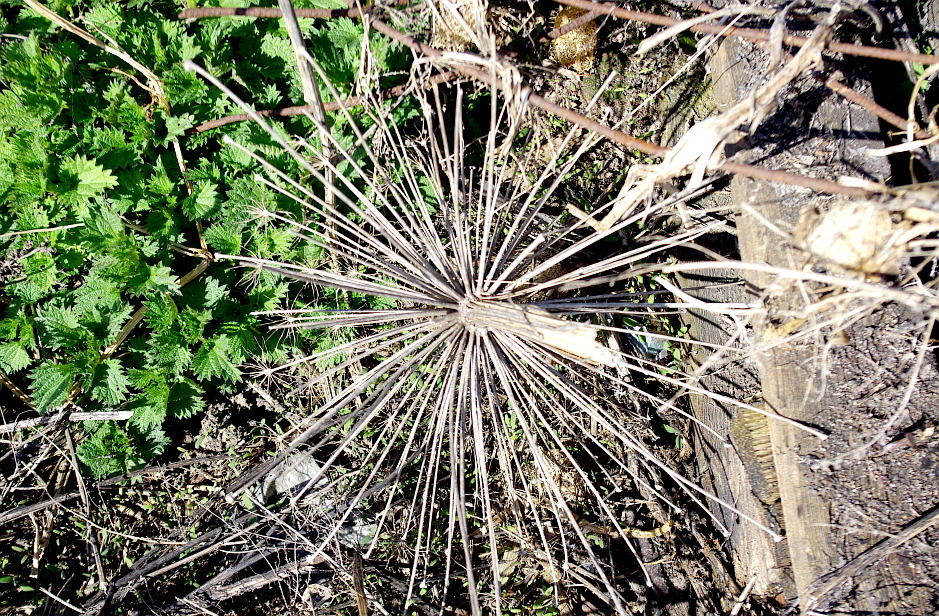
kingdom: Plantae
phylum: Tracheophyta
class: Magnoliopsida
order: Apiales
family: Apiaceae
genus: Heracleum
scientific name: Heracleum sosnowskyi
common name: Sosnowsky's hogweed
